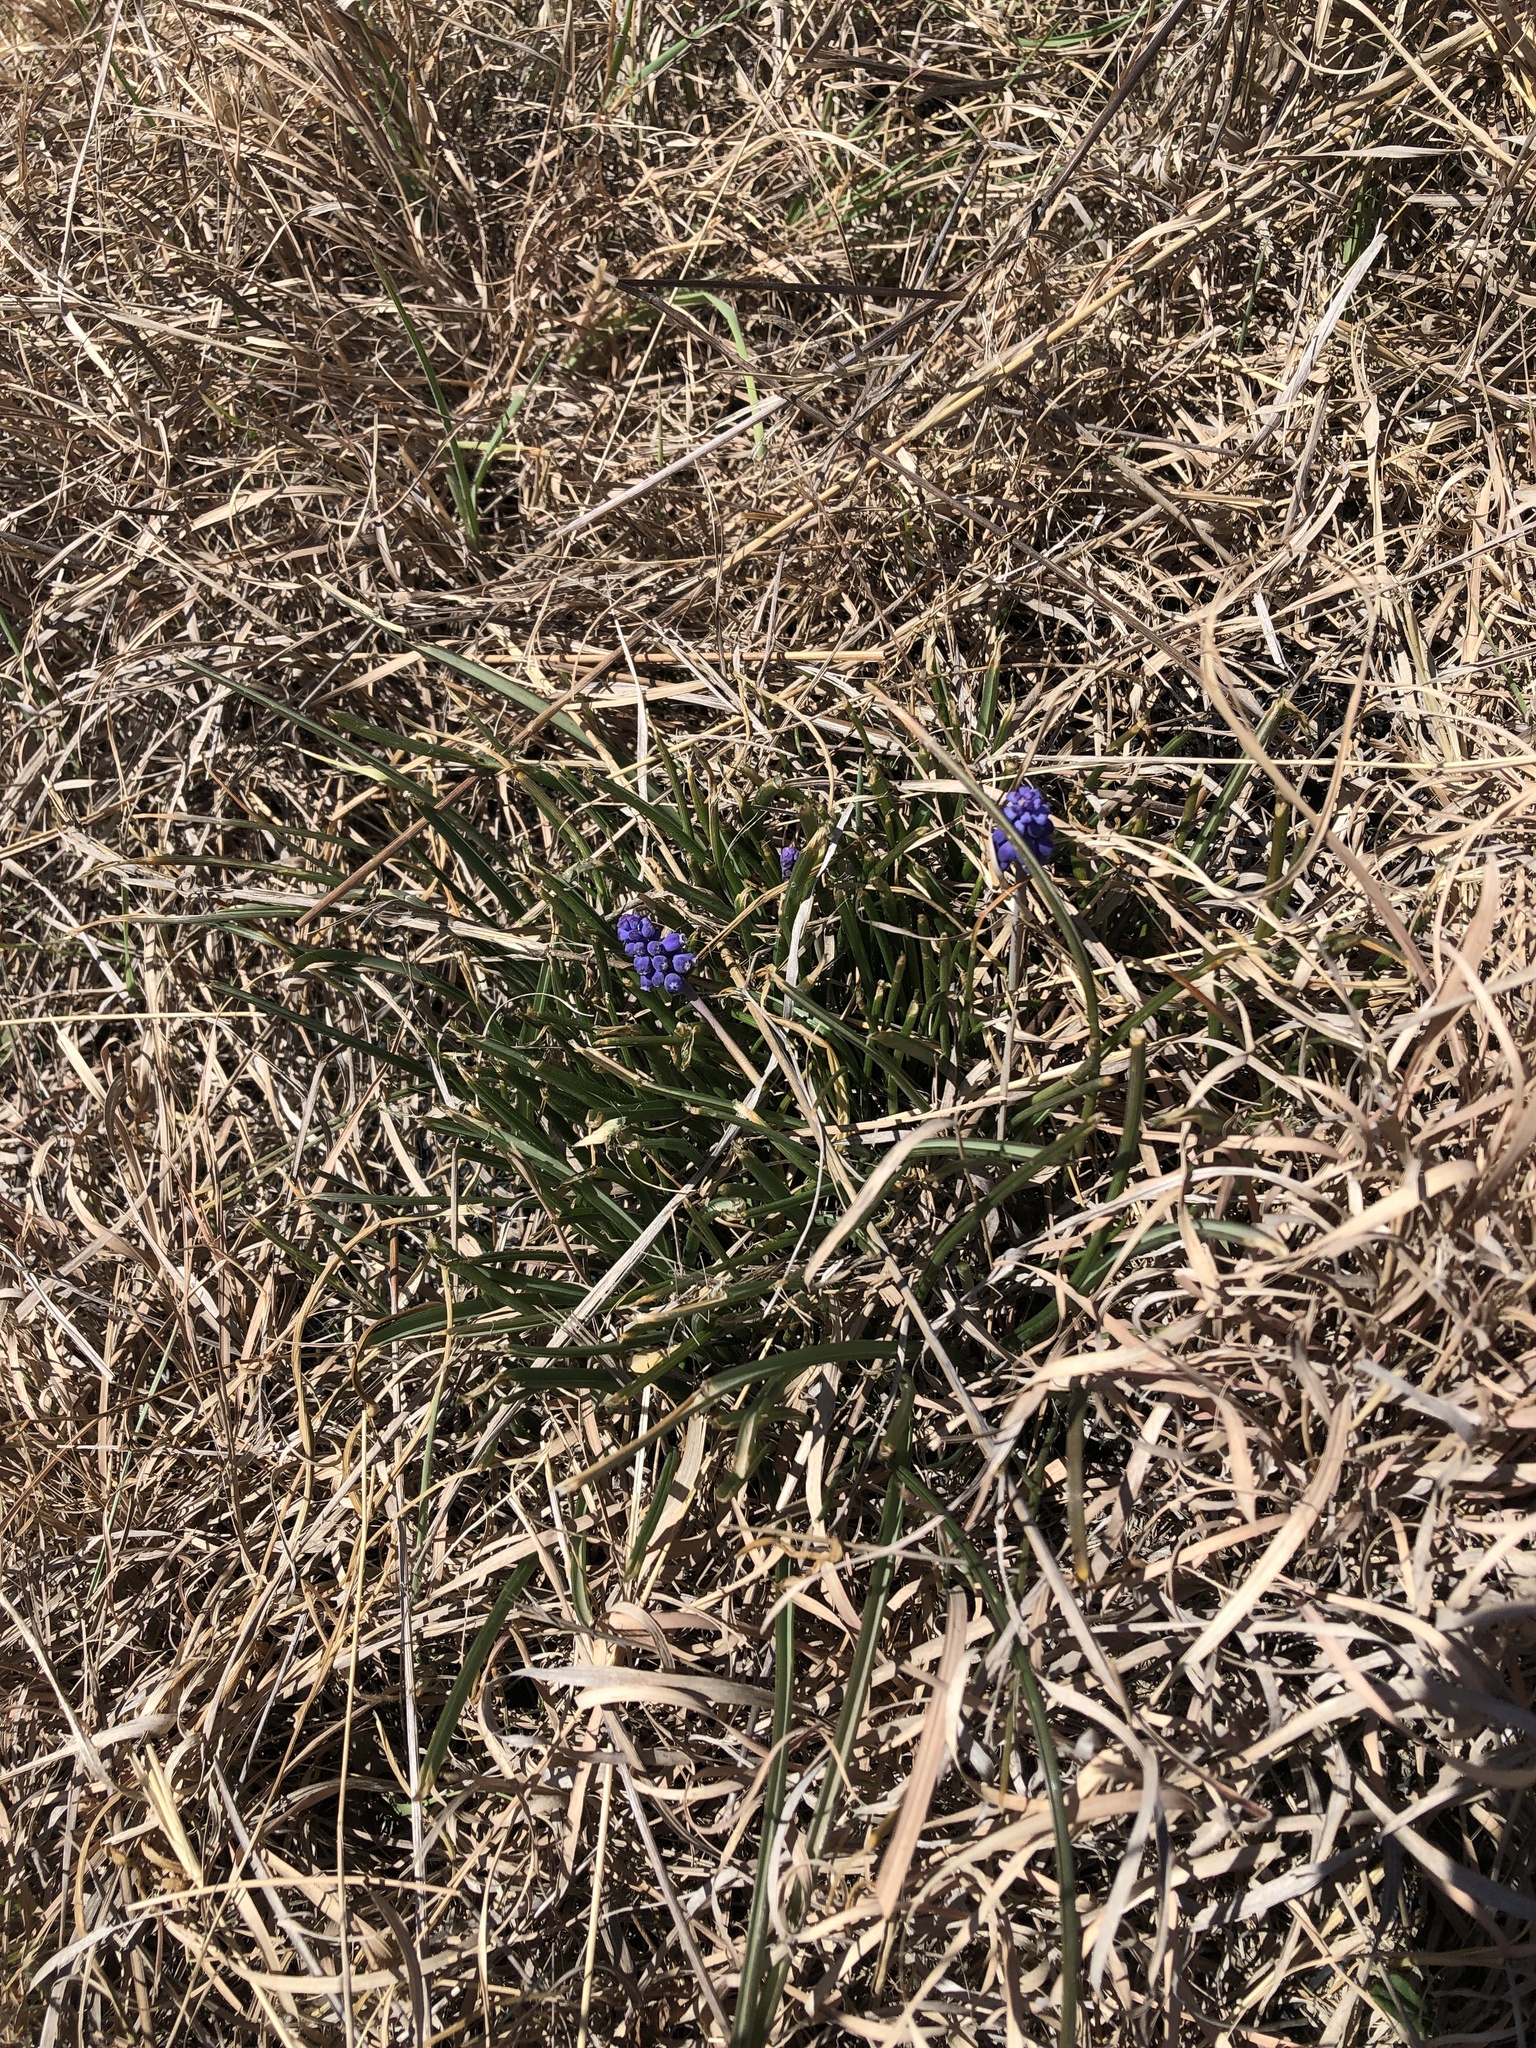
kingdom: Plantae
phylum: Tracheophyta
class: Liliopsida
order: Asparagales
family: Asparagaceae
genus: Muscari
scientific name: Muscari neglectum
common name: Grape-hyacinth
